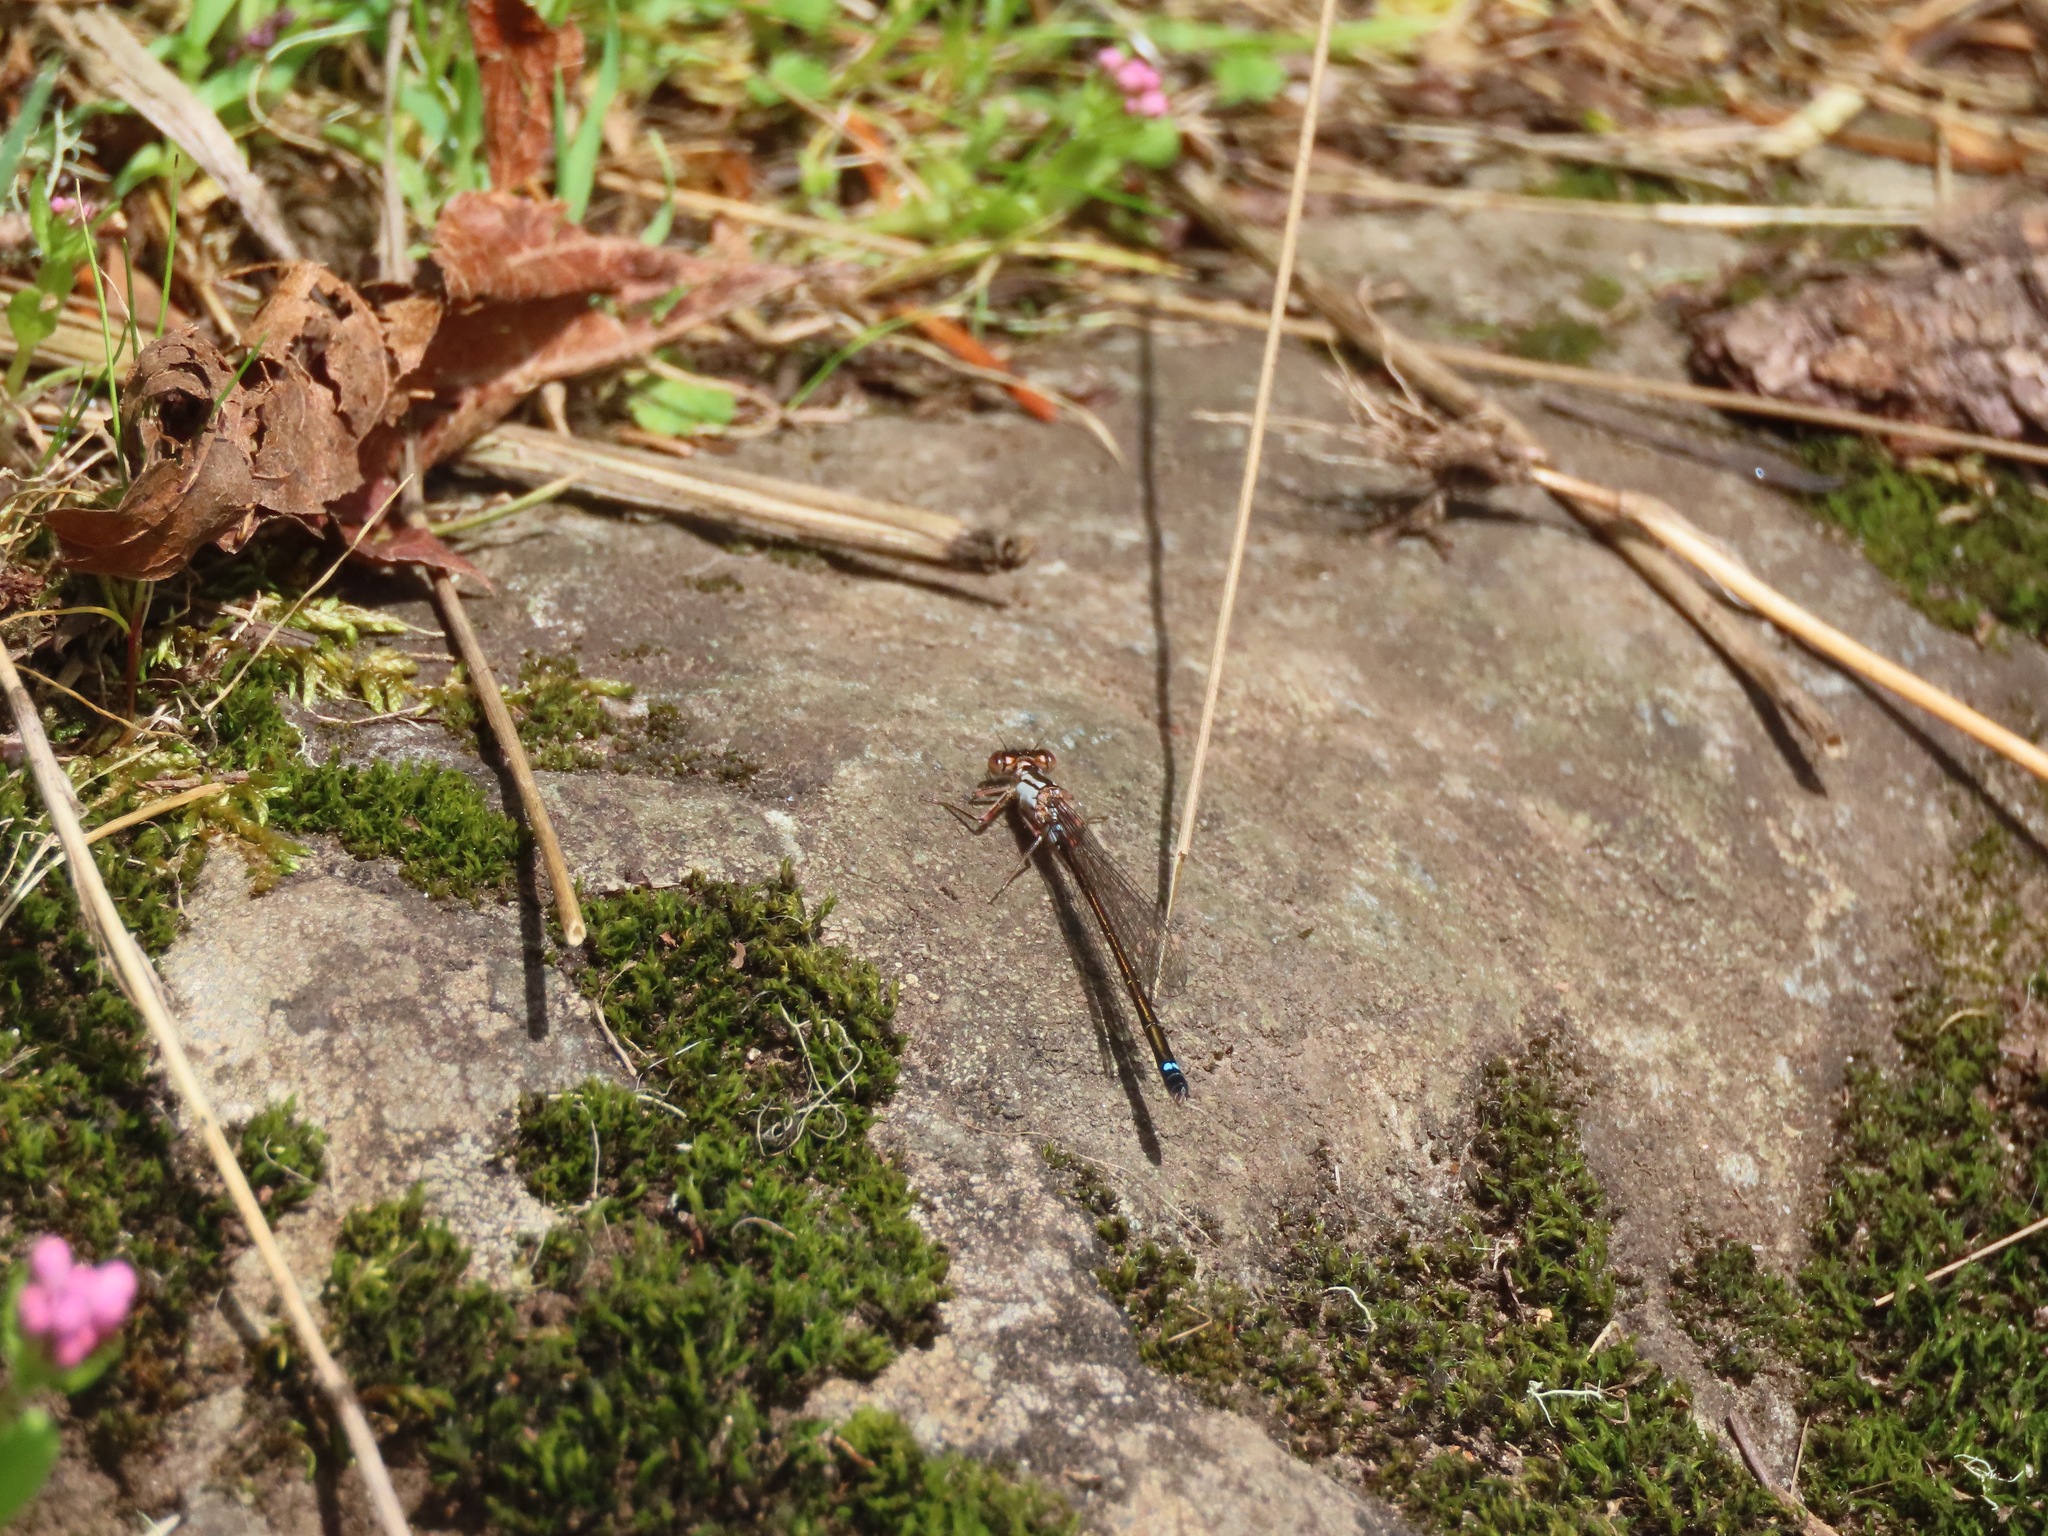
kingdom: Animalia
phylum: Arthropoda
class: Insecta
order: Odonata
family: Coenagrionidae
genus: Ischnura
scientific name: Ischnura cervula
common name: Pacific forktail
